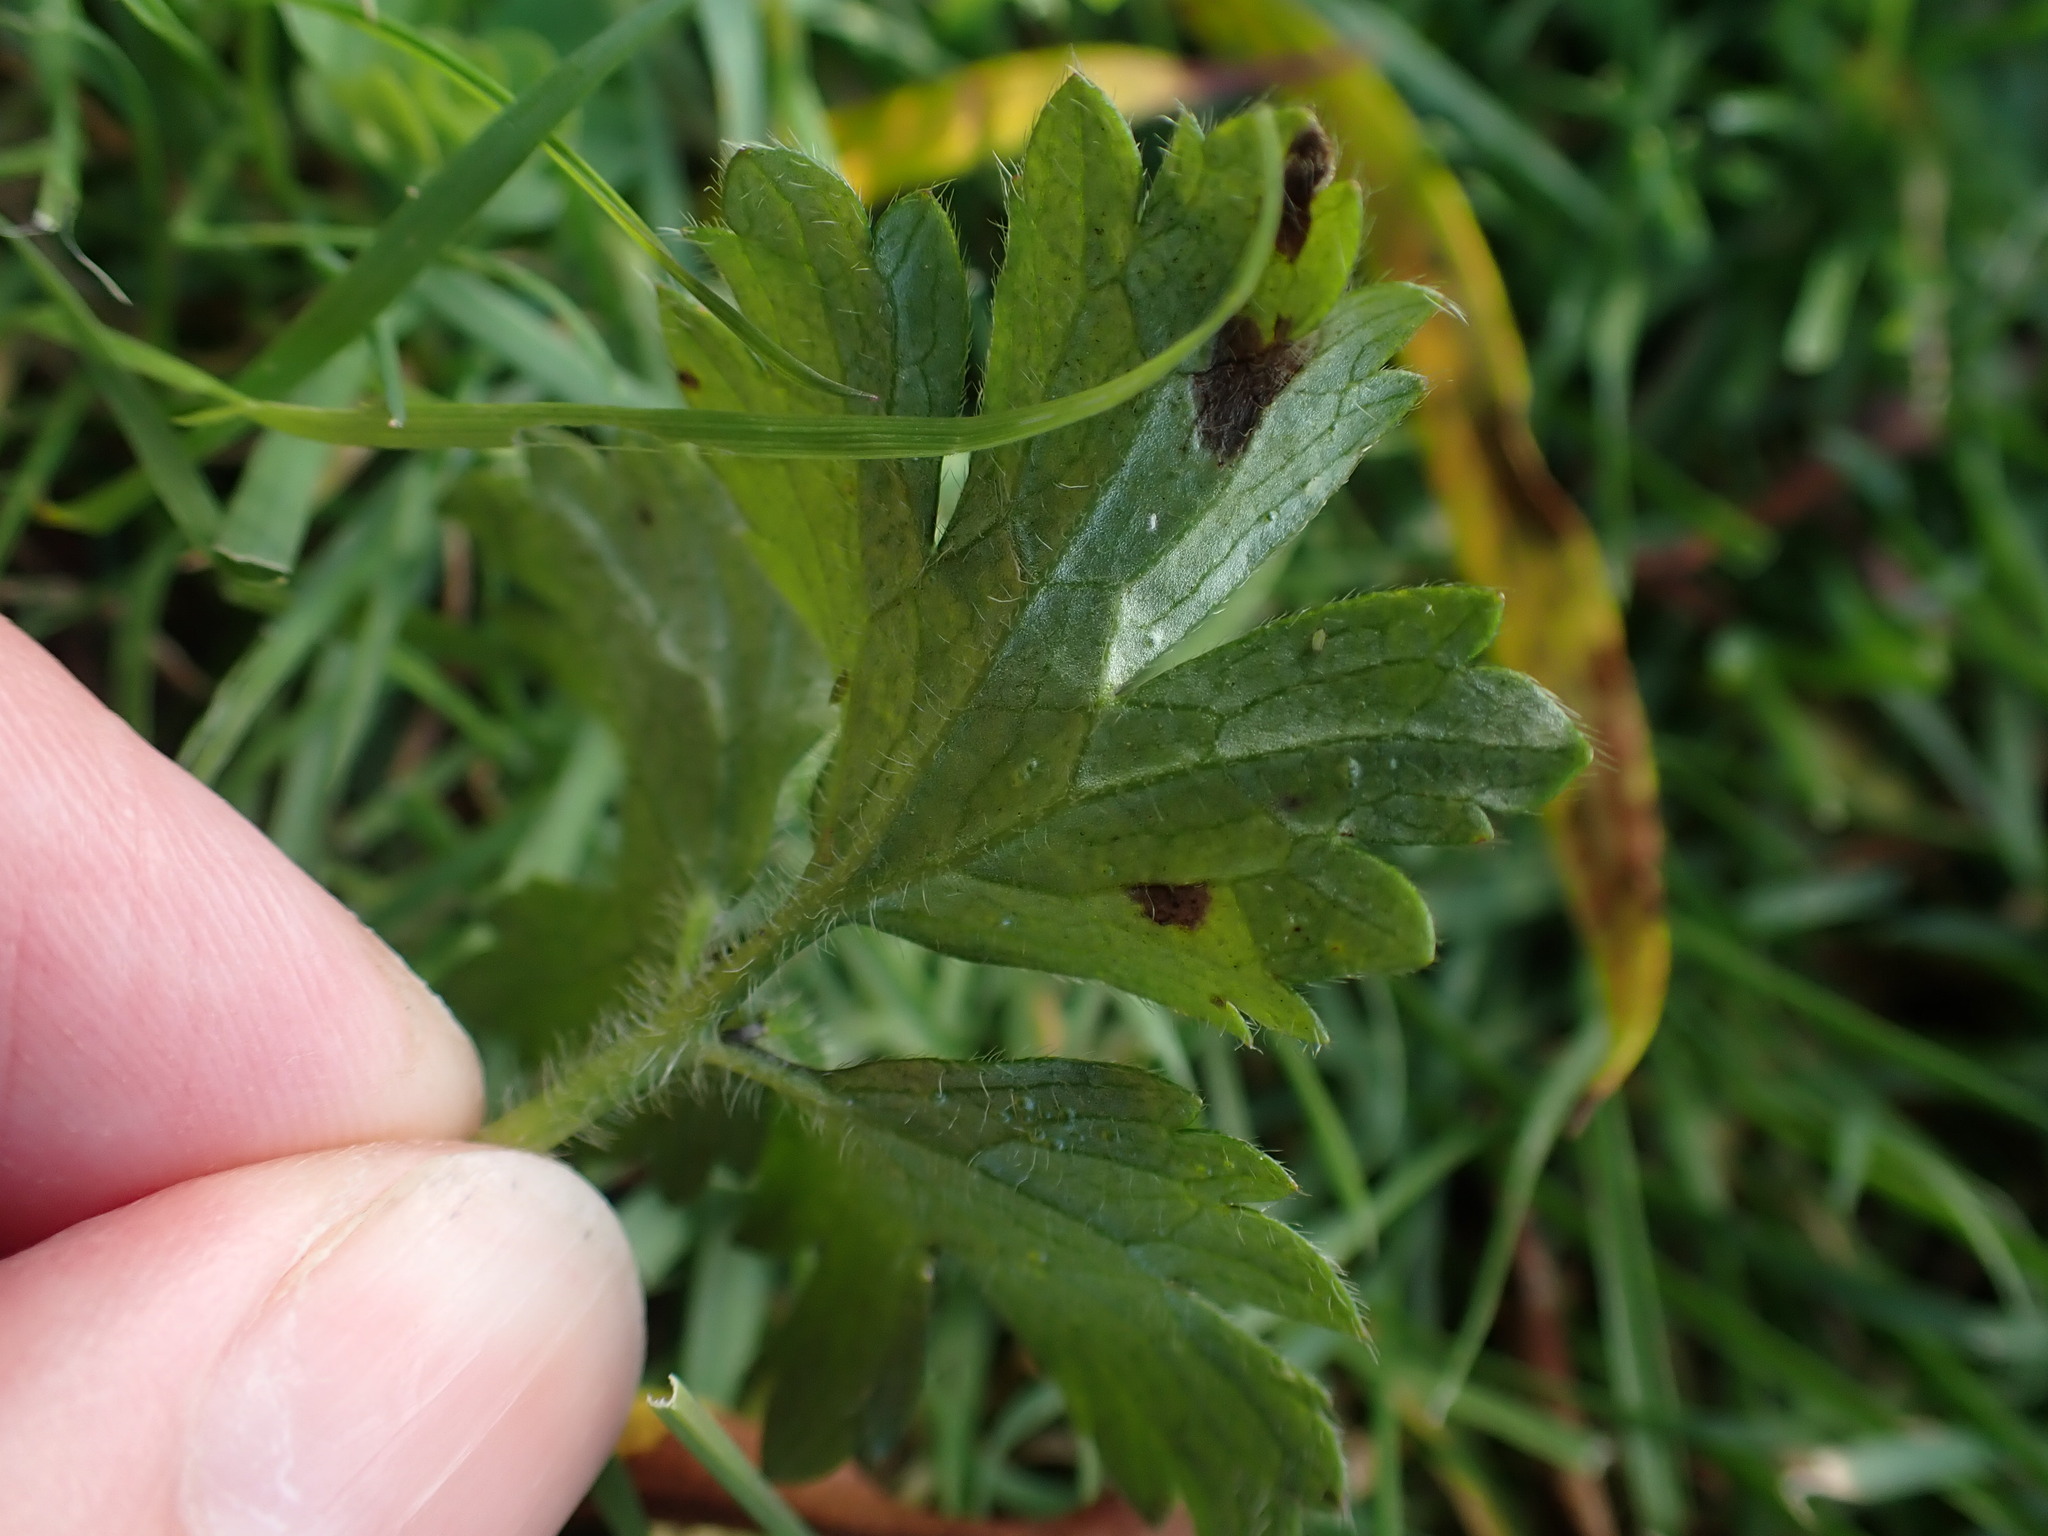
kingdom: Plantae
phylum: Tracheophyta
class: Magnoliopsida
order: Ranunculales
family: Ranunculaceae
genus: Ranunculus
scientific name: Ranunculus repens
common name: Creeping buttercup
